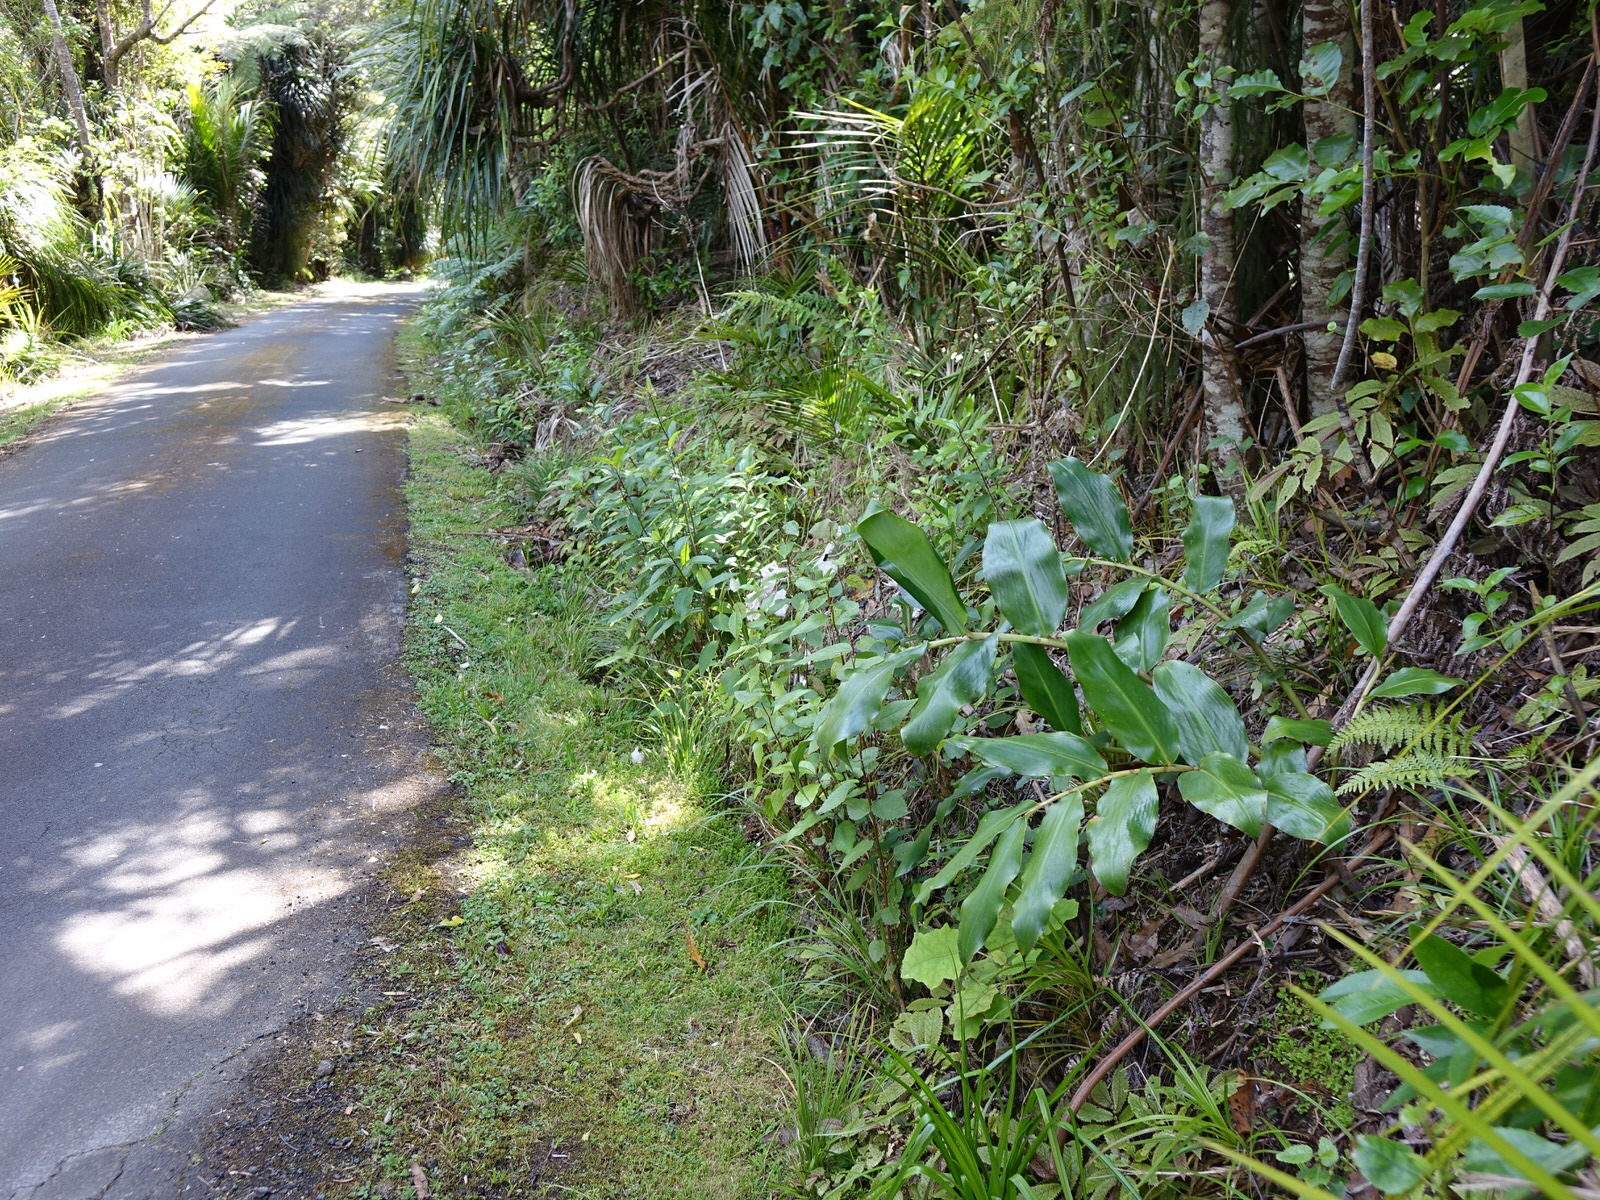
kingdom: Plantae
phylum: Tracheophyta
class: Liliopsida
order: Zingiberales
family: Zingiberaceae
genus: Hedychium
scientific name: Hedychium gardnerianum
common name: Himalayan ginger
